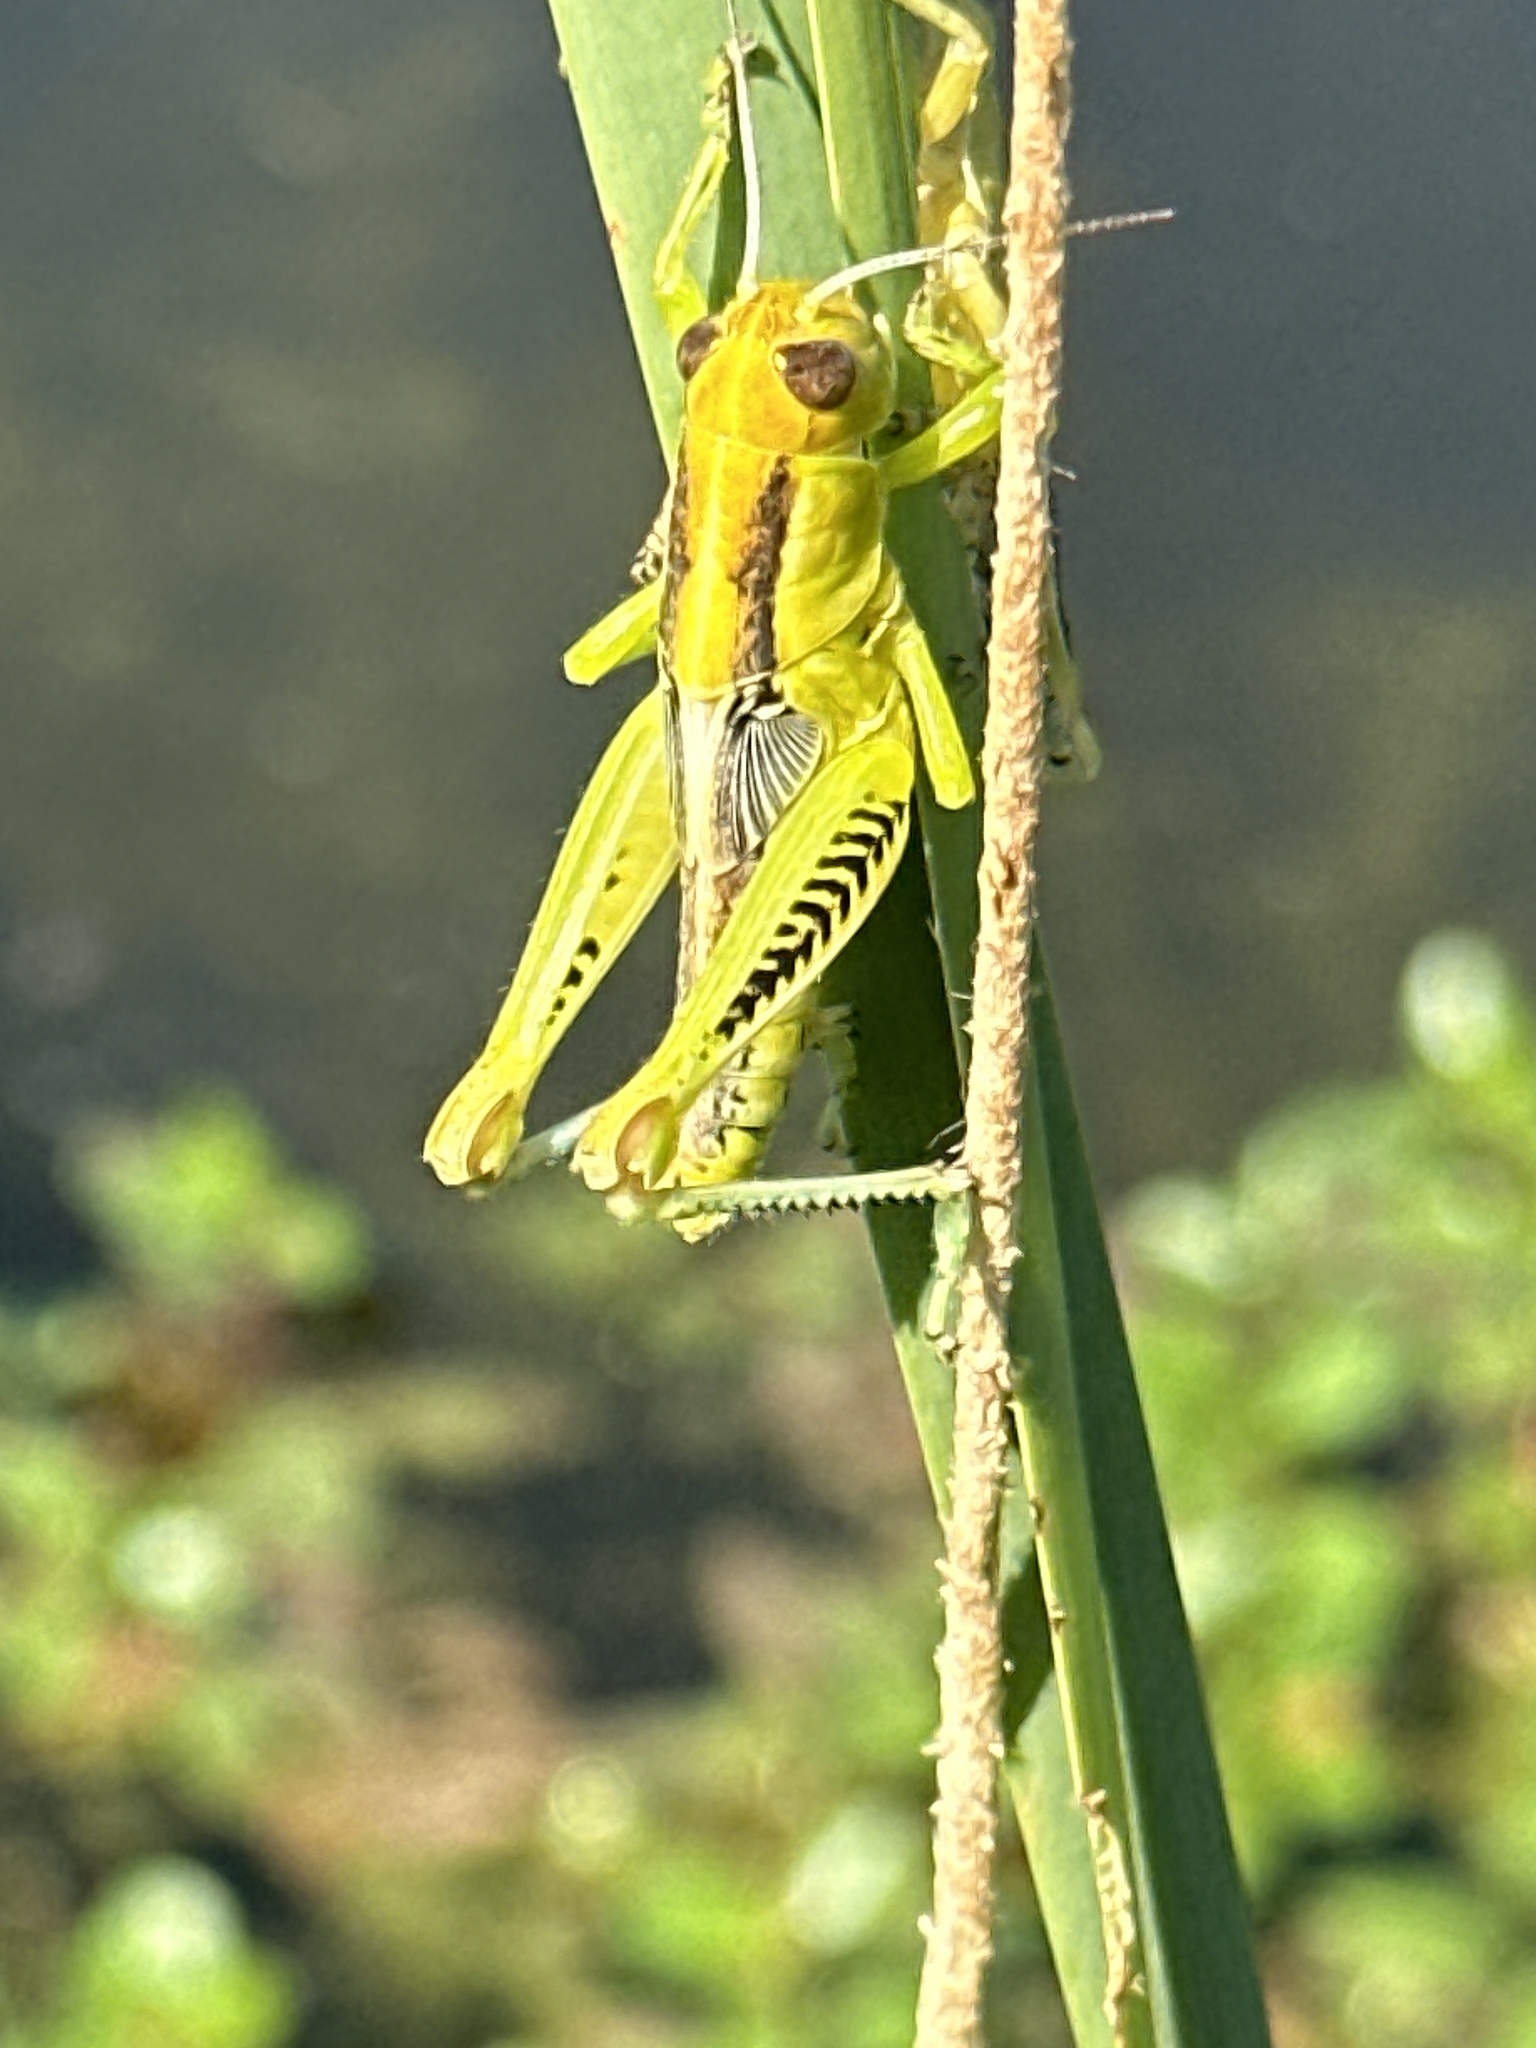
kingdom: Animalia
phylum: Arthropoda
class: Insecta
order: Orthoptera
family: Acrididae
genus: Melanoplus
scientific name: Melanoplus differentialis
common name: Differential grasshopper
